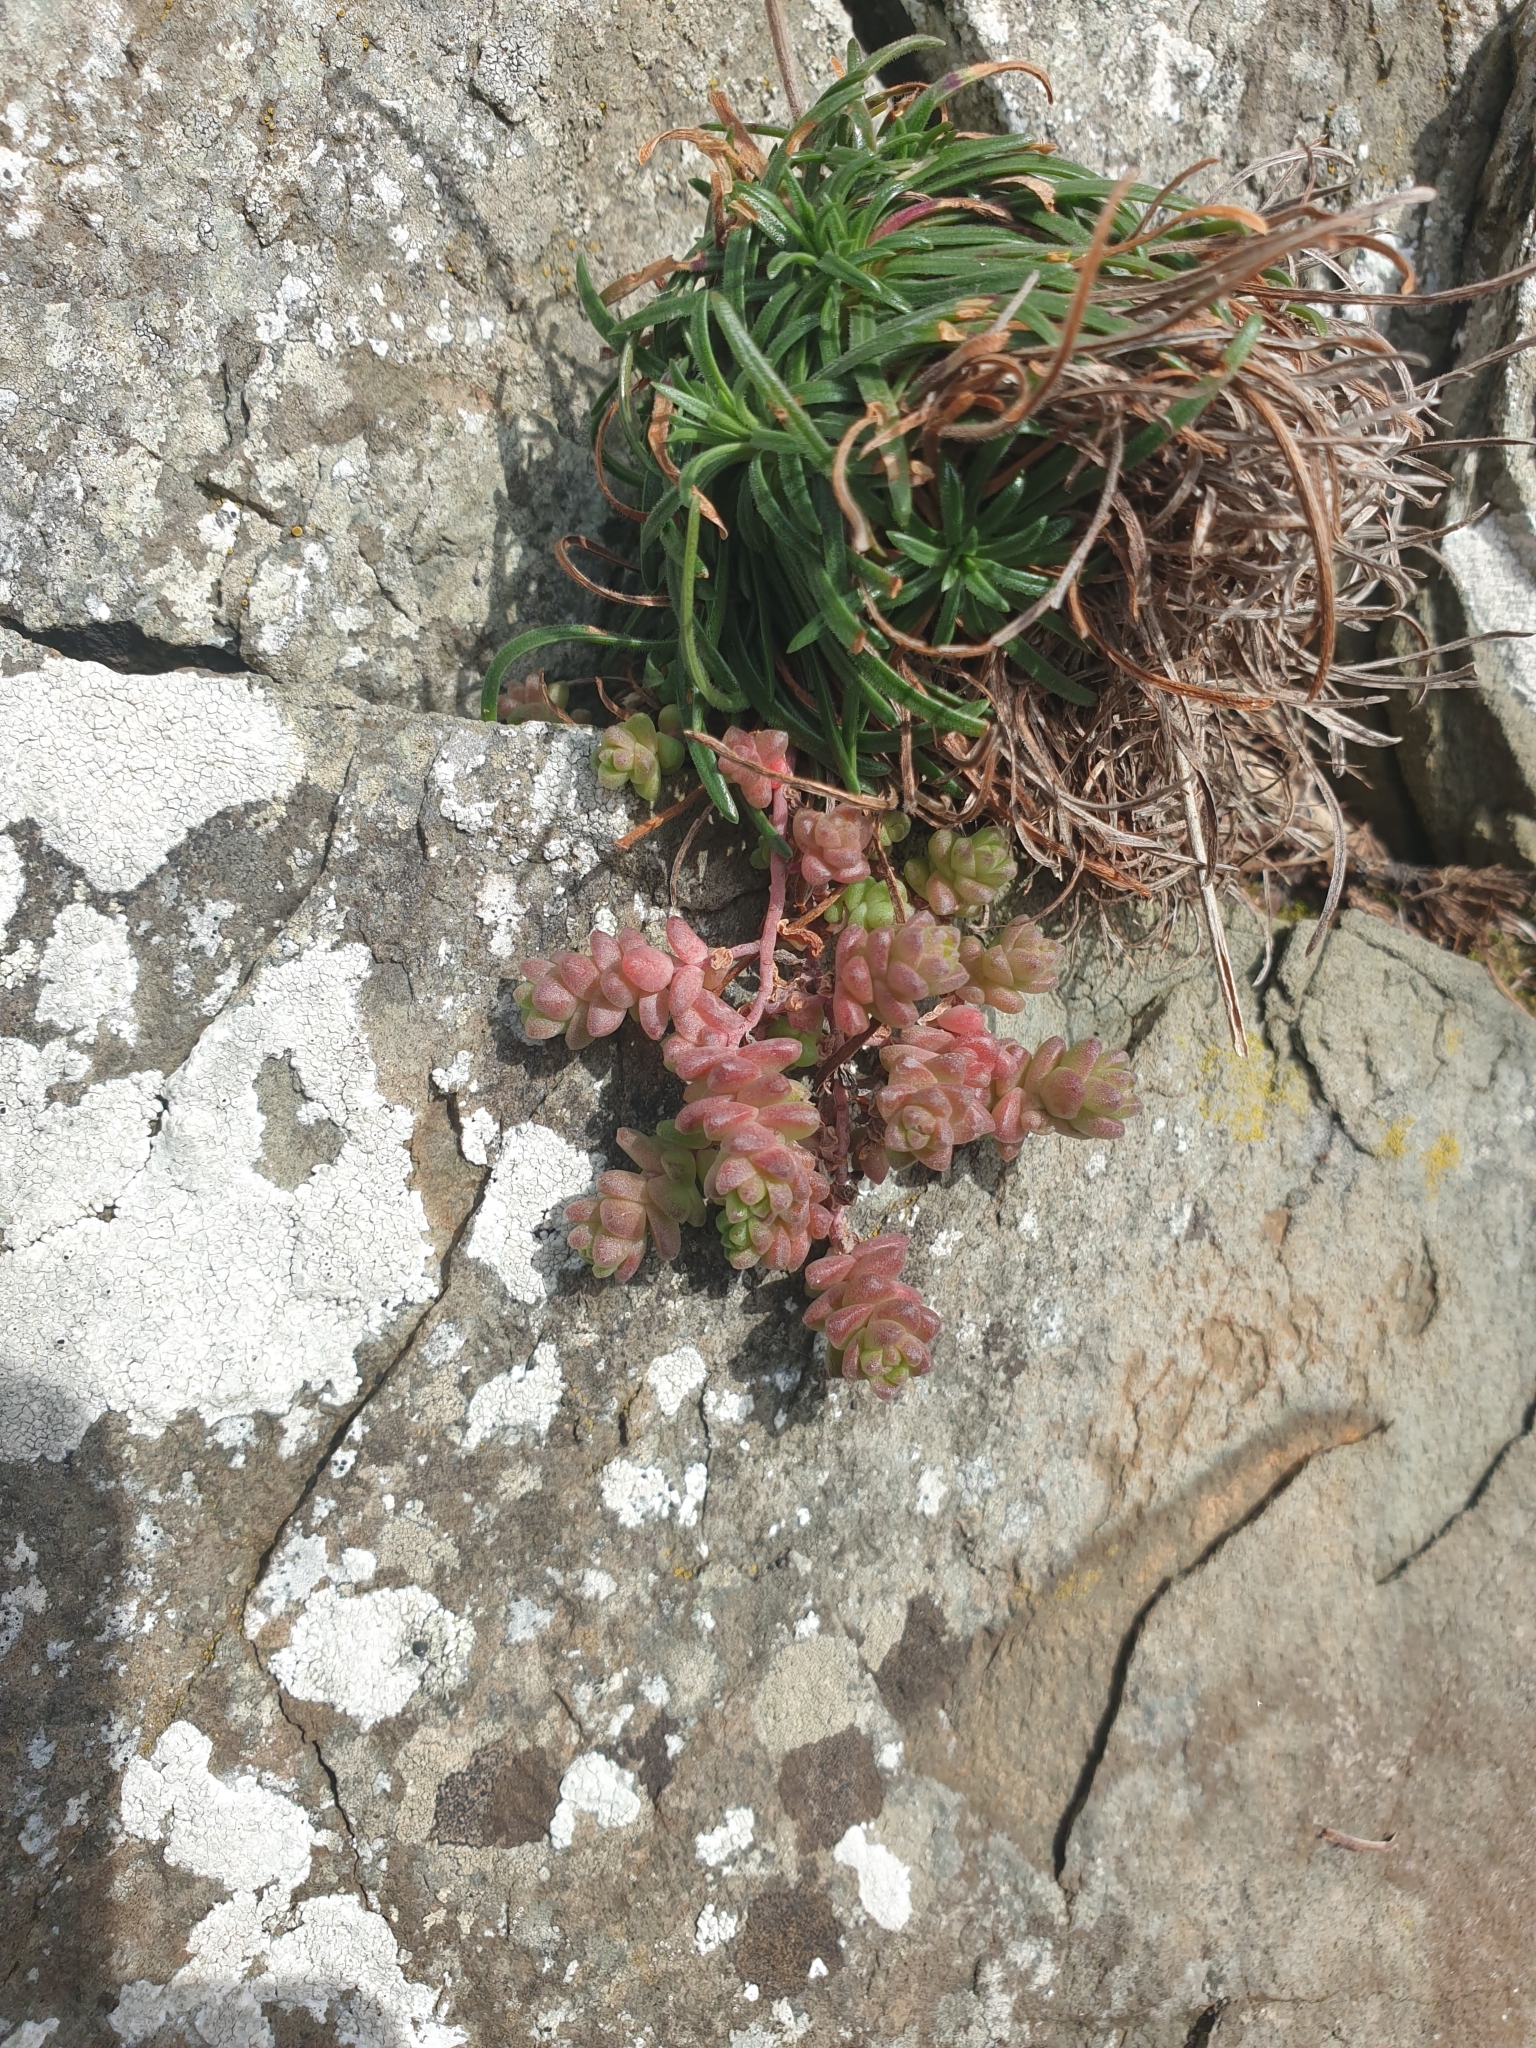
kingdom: Plantae
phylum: Tracheophyta
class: Magnoliopsida
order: Saxifragales
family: Crassulaceae
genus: Sedum
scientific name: Sedum anglicum
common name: English stonecrop
